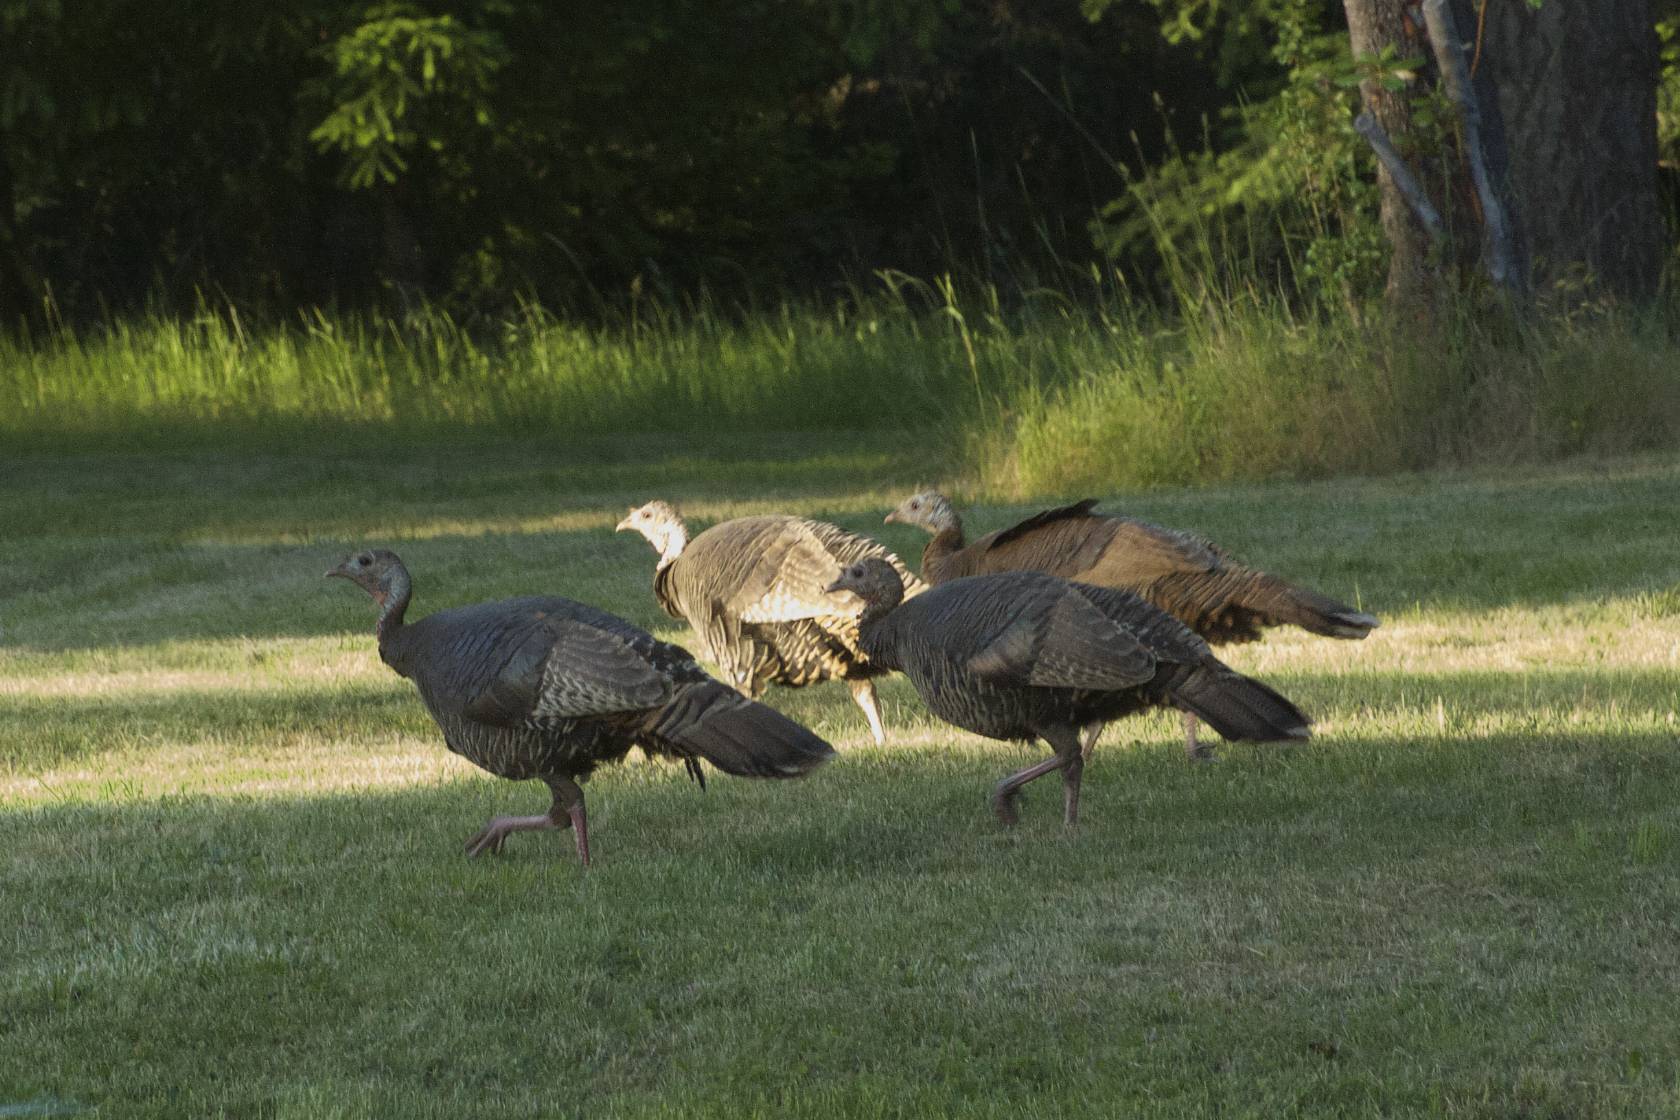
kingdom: Animalia
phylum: Chordata
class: Aves
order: Galliformes
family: Phasianidae
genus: Meleagris
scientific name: Meleagris gallopavo
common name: Wild turkey
